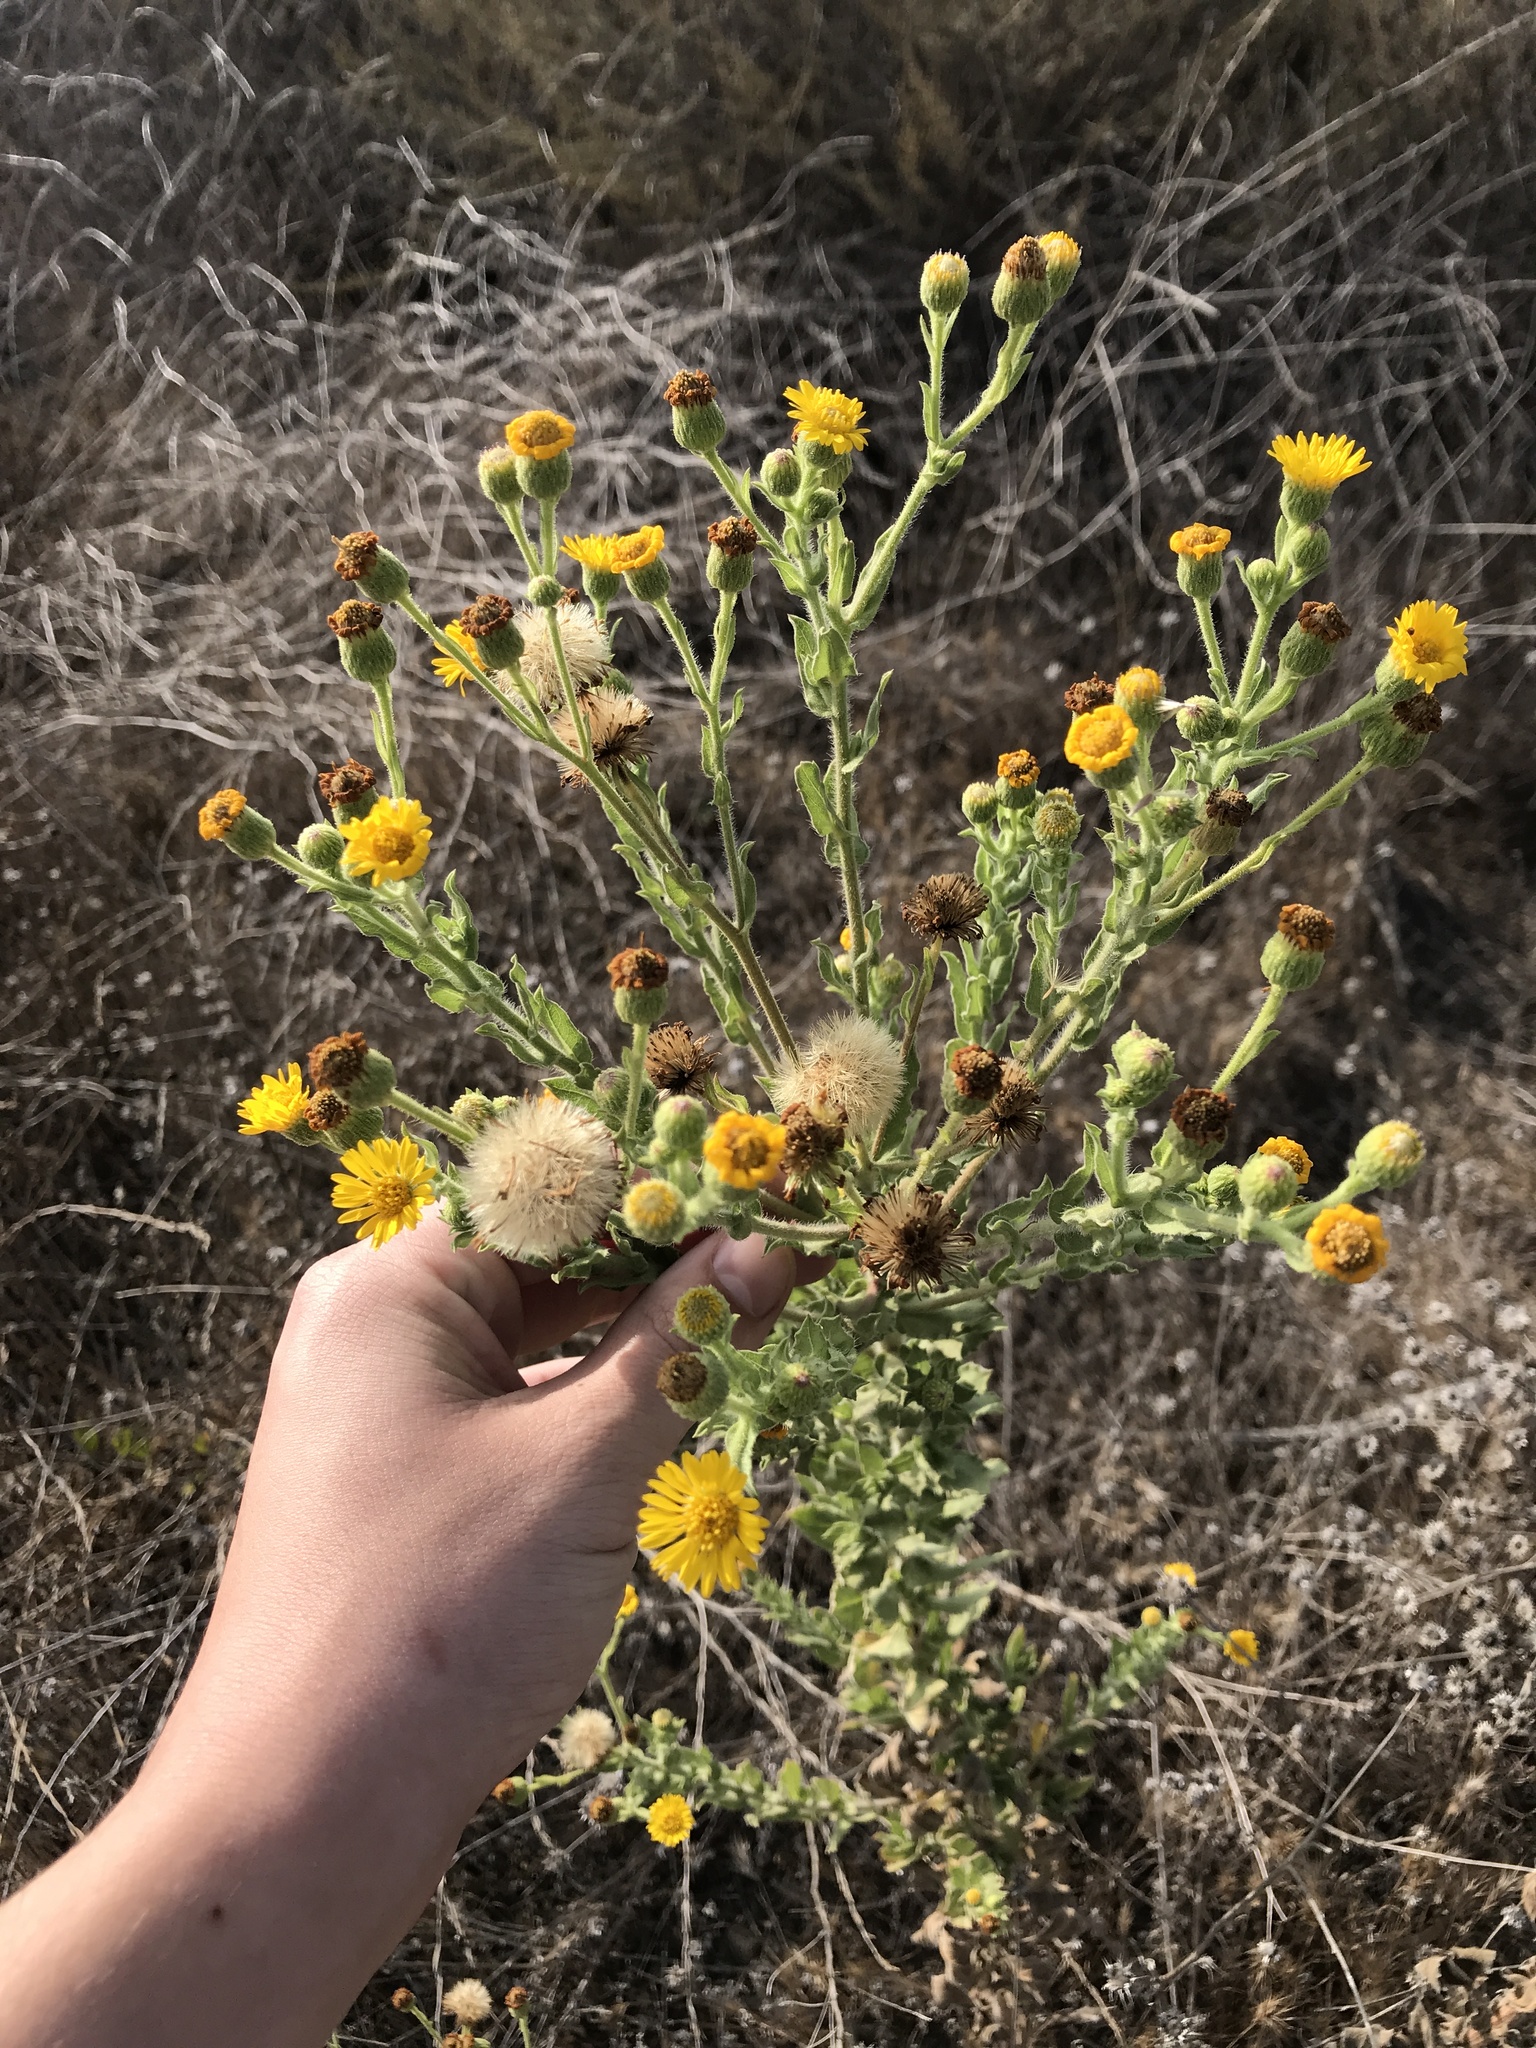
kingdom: Plantae
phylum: Tracheophyta
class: Magnoliopsida
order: Asterales
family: Asteraceae
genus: Heterotheca
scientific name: Heterotheca grandiflora
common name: Telegraphweed
